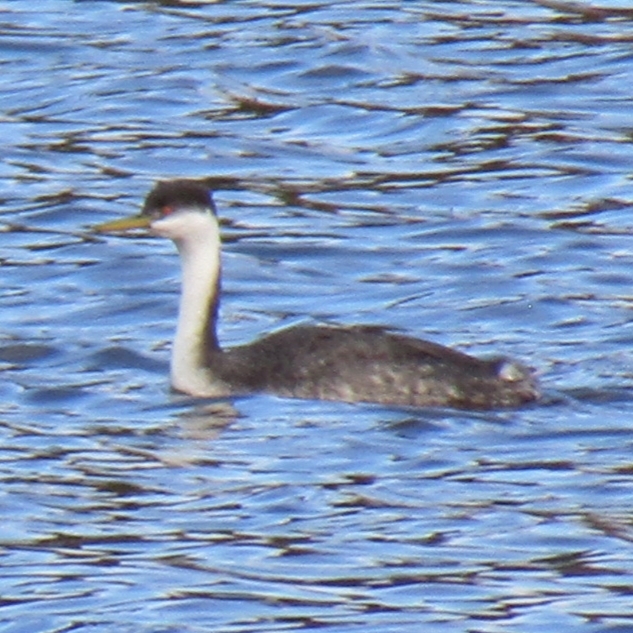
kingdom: Animalia
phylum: Chordata
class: Aves
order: Podicipediformes
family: Podicipedidae
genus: Aechmophorus
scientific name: Aechmophorus occidentalis
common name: Western grebe
